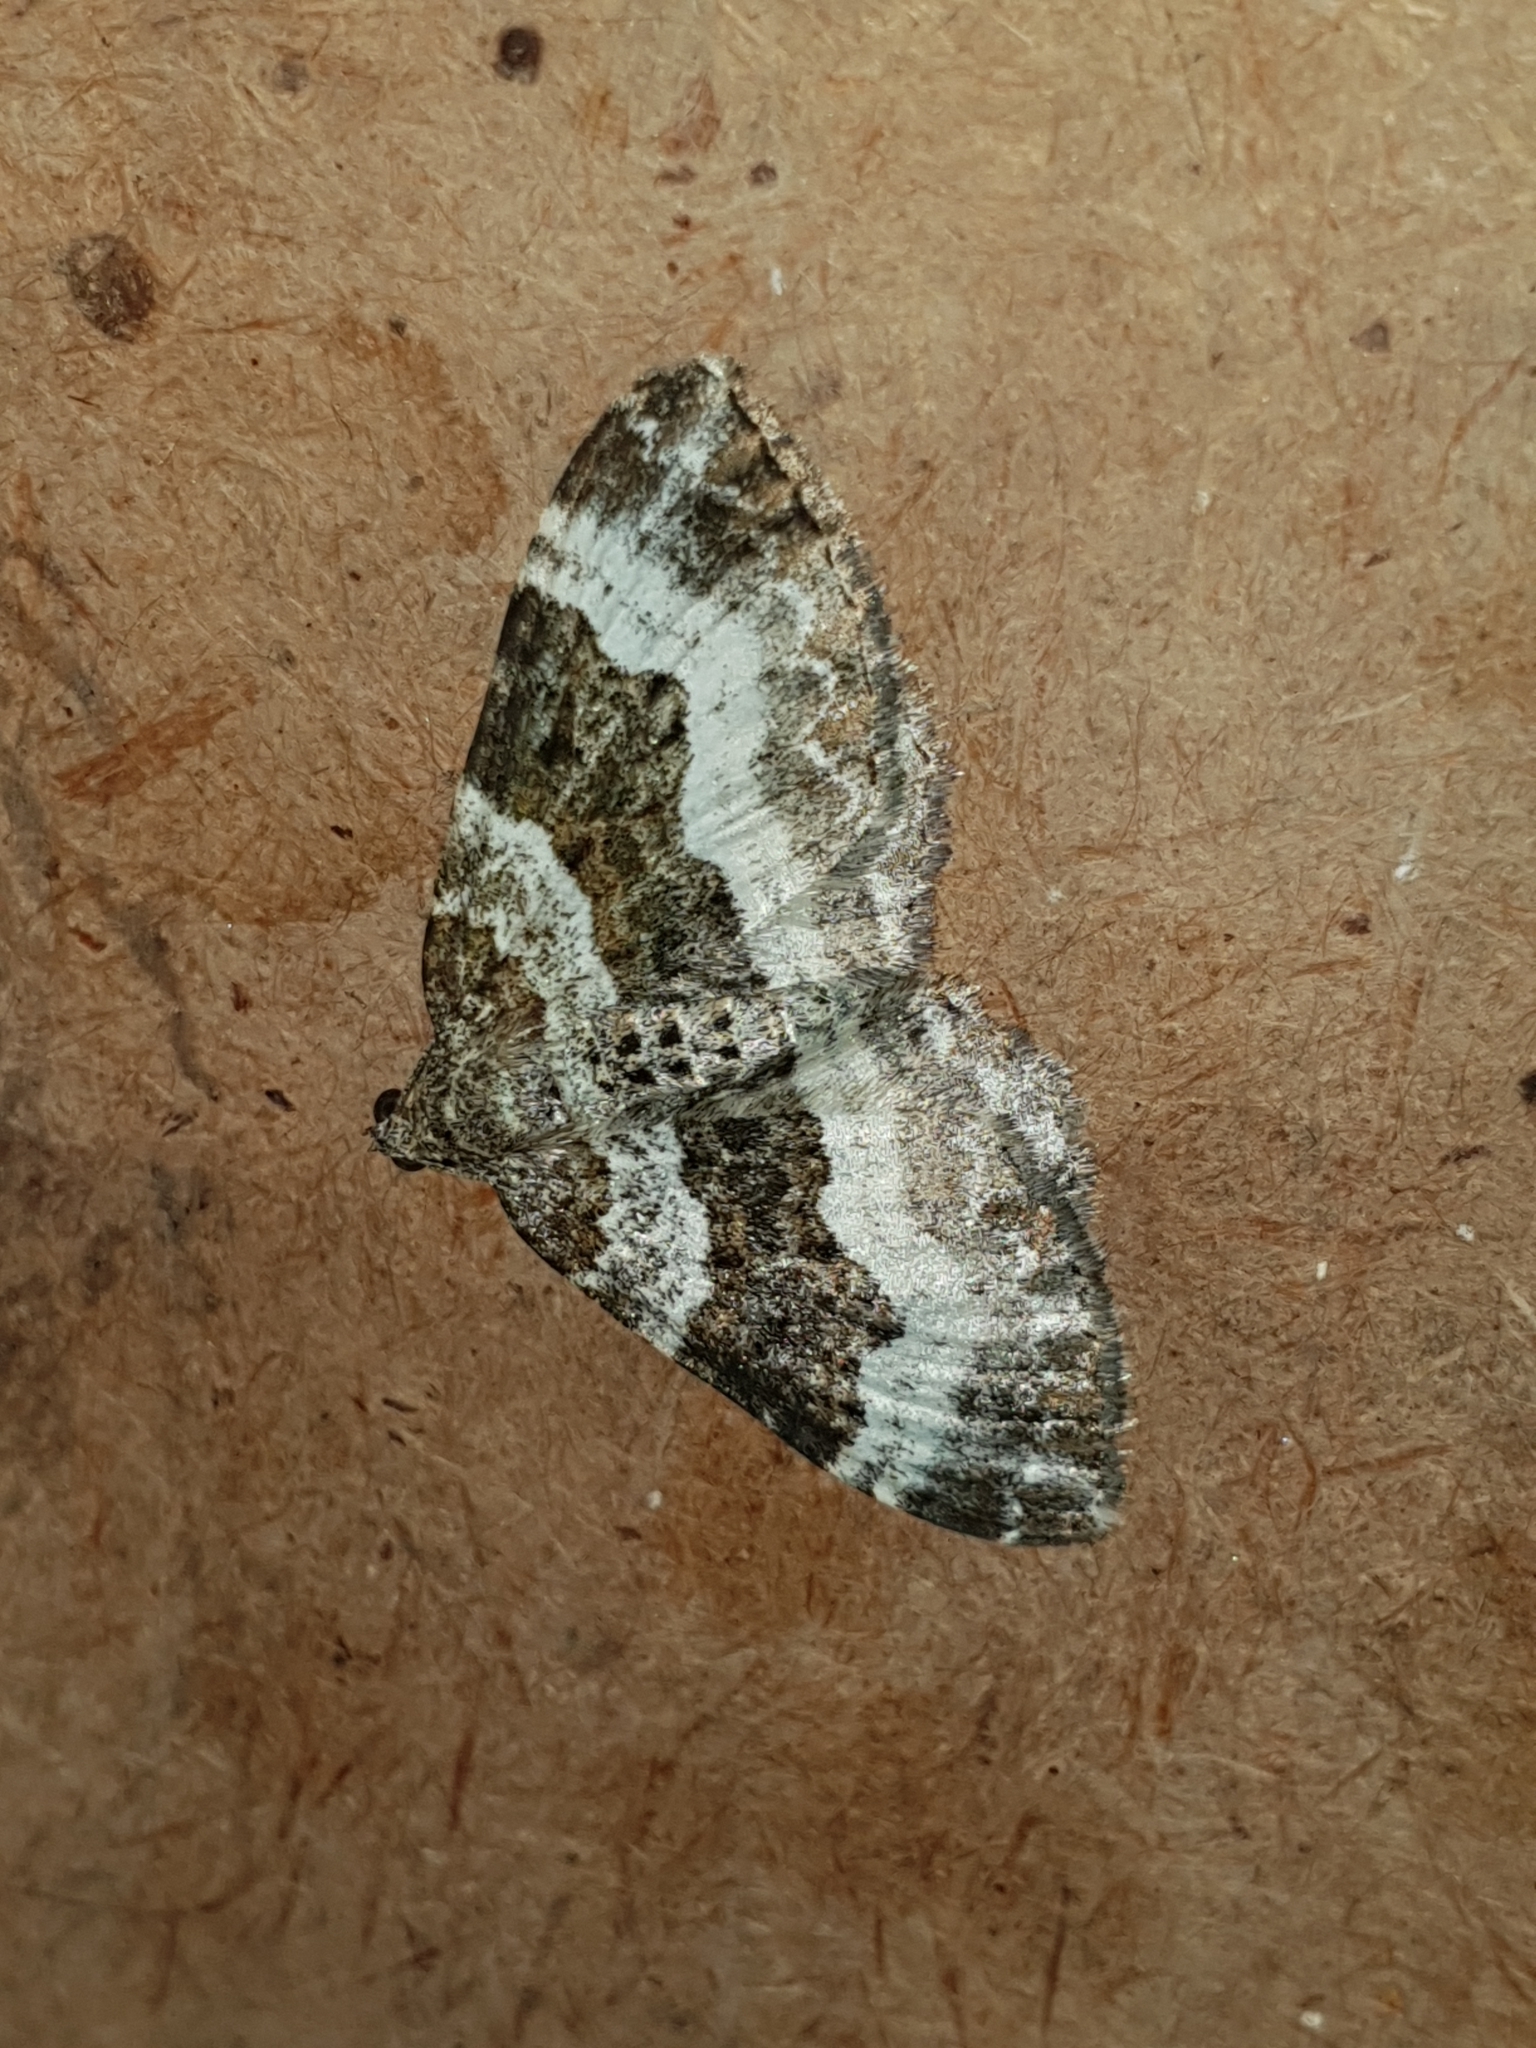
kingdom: Animalia
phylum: Arthropoda
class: Insecta
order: Lepidoptera
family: Geometridae
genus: Epirrhoe
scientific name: Epirrhoe alternata
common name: Common carpet
